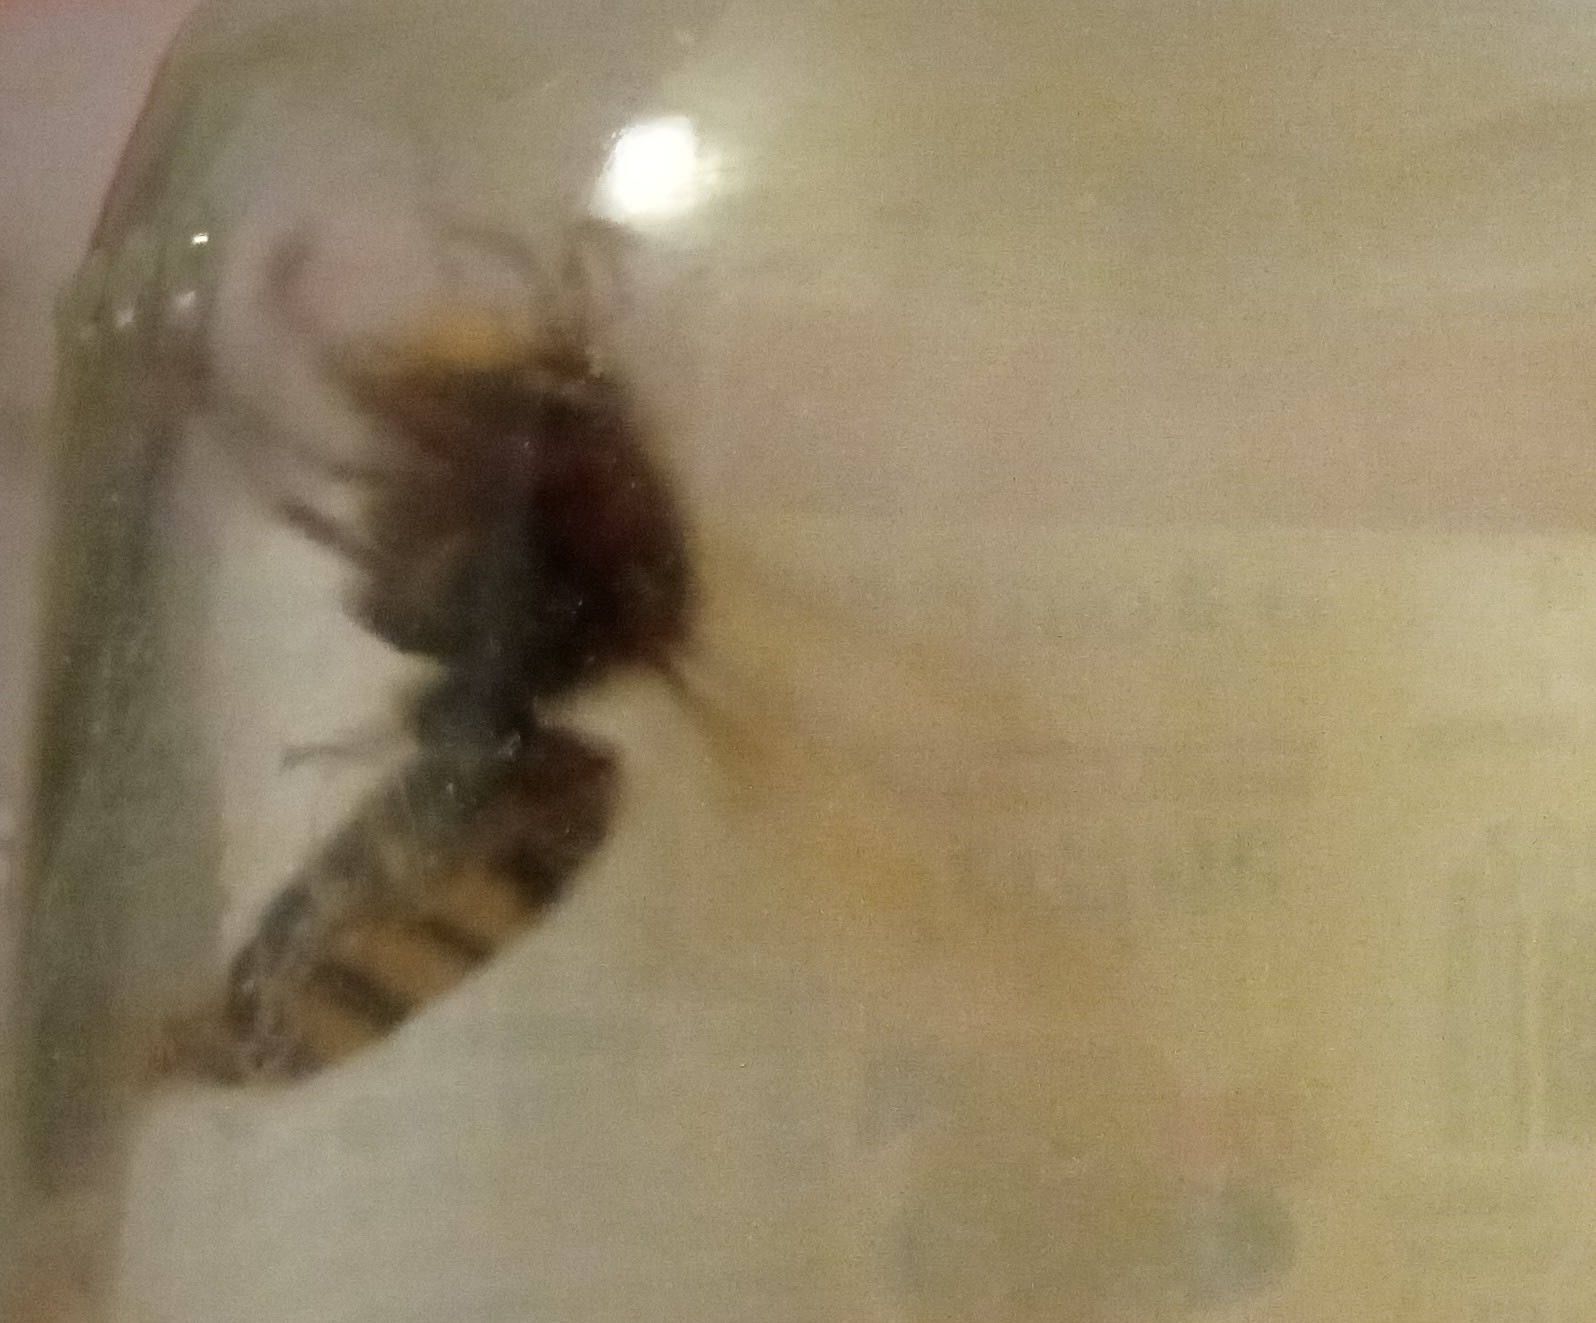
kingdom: Animalia
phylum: Arthropoda
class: Insecta
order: Hymenoptera
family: Vespidae
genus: Vespa
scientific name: Vespa crabro
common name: Hornet
